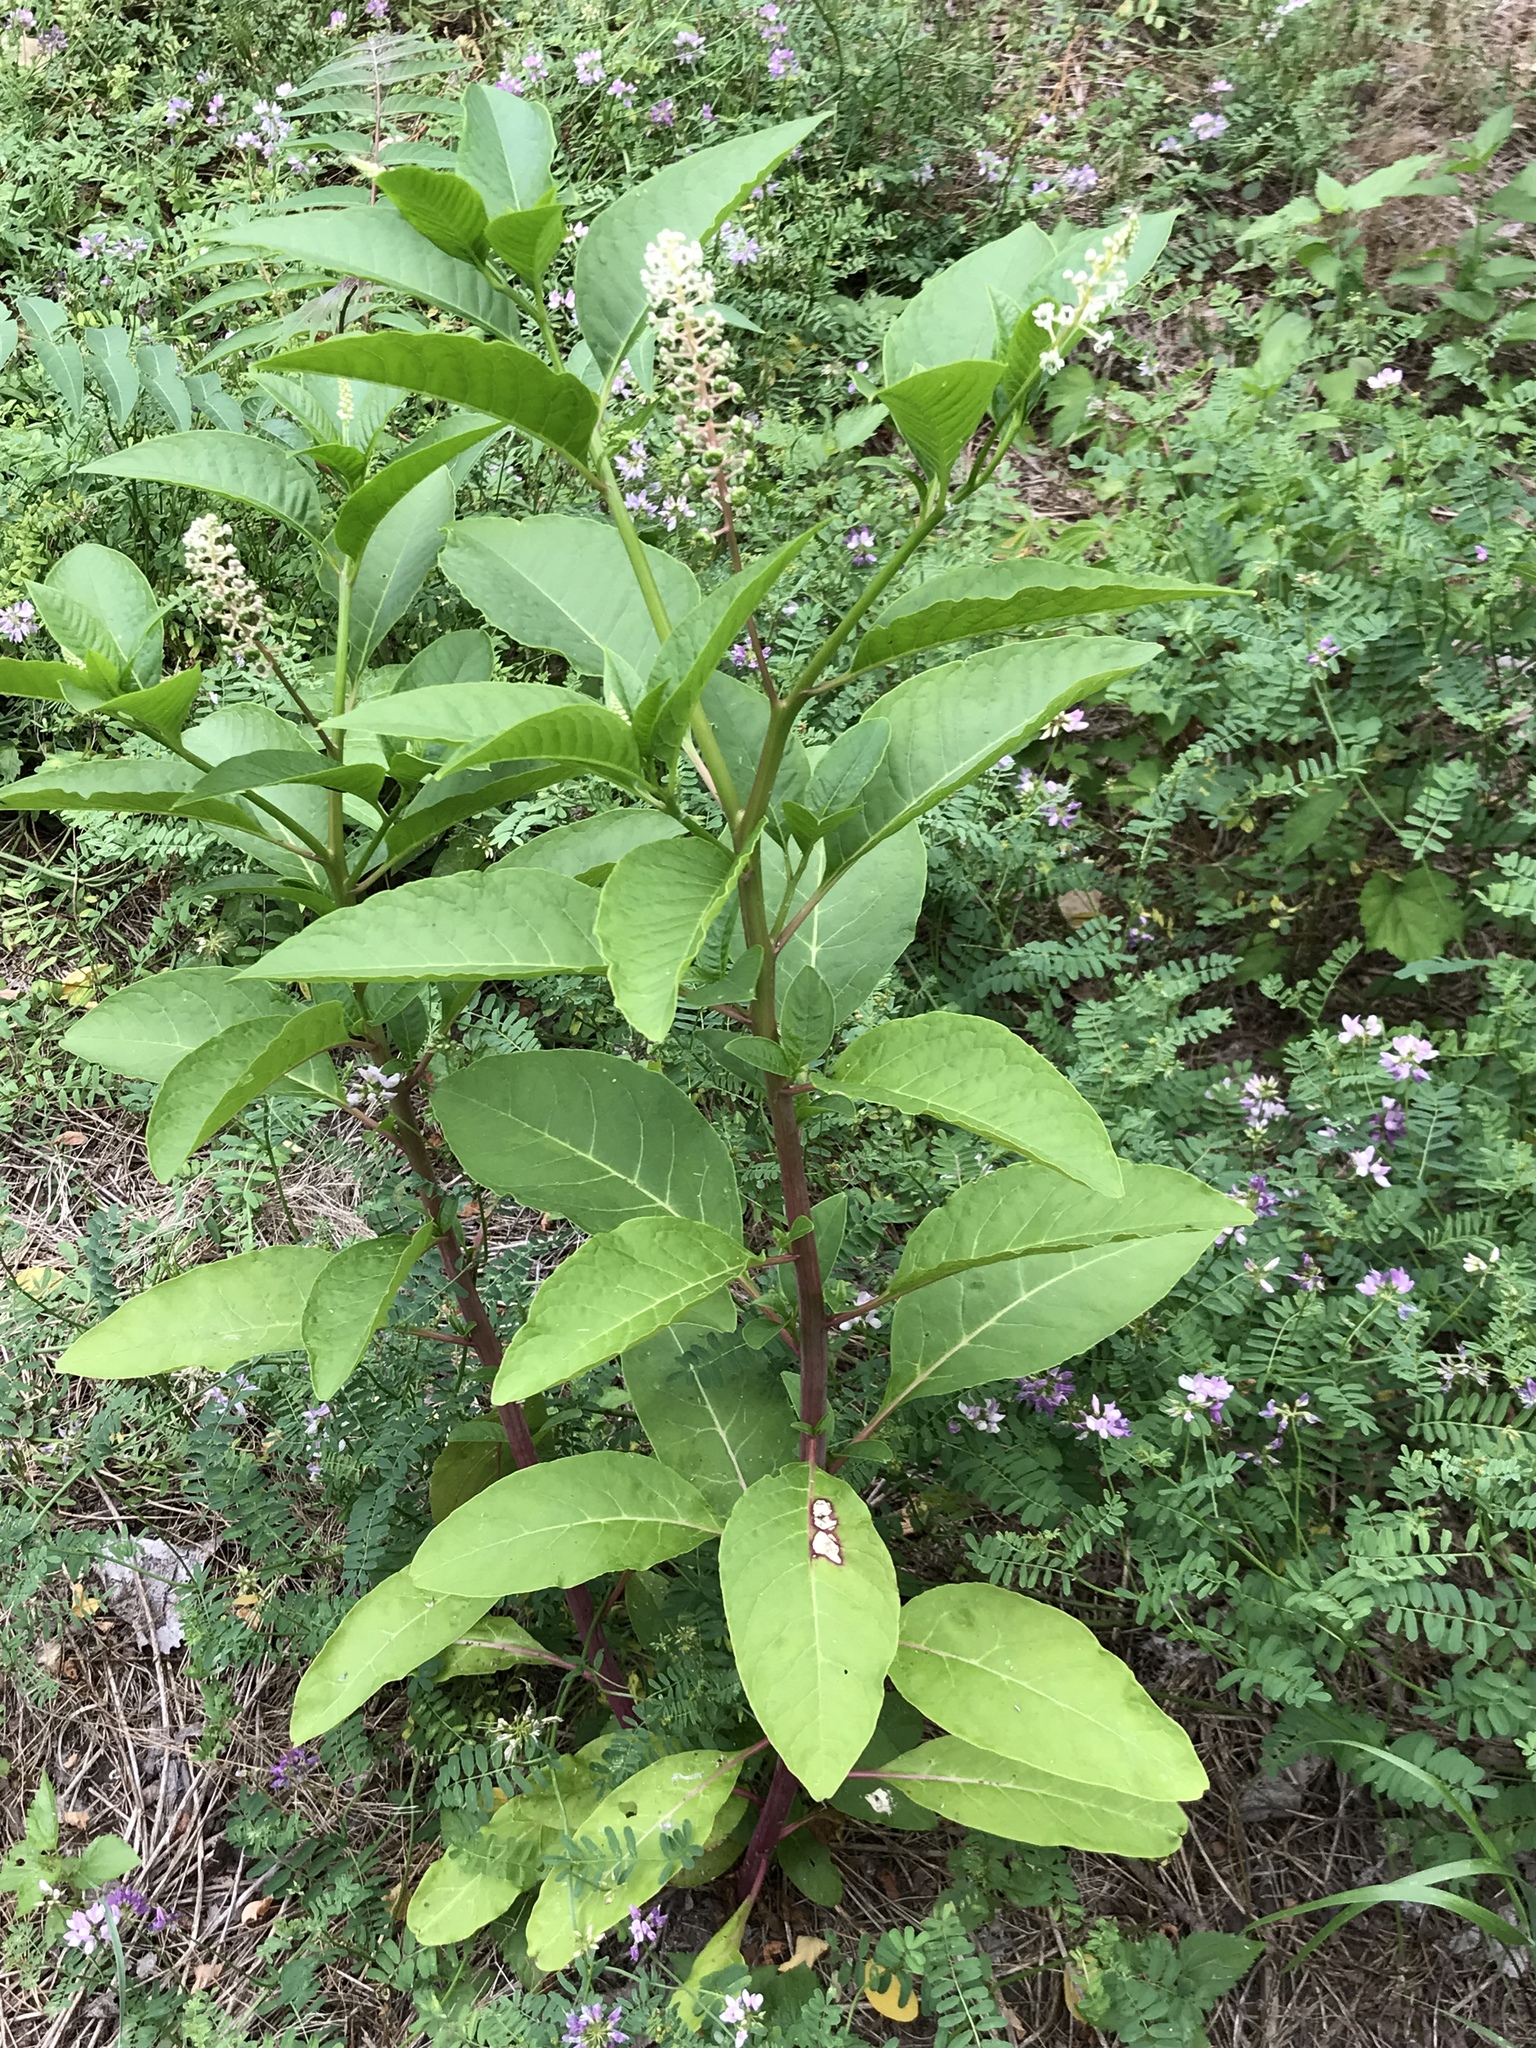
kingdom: Plantae
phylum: Tracheophyta
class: Magnoliopsida
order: Caryophyllales
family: Phytolaccaceae
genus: Phytolacca
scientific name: Phytolacca americana
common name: American pokeweed
